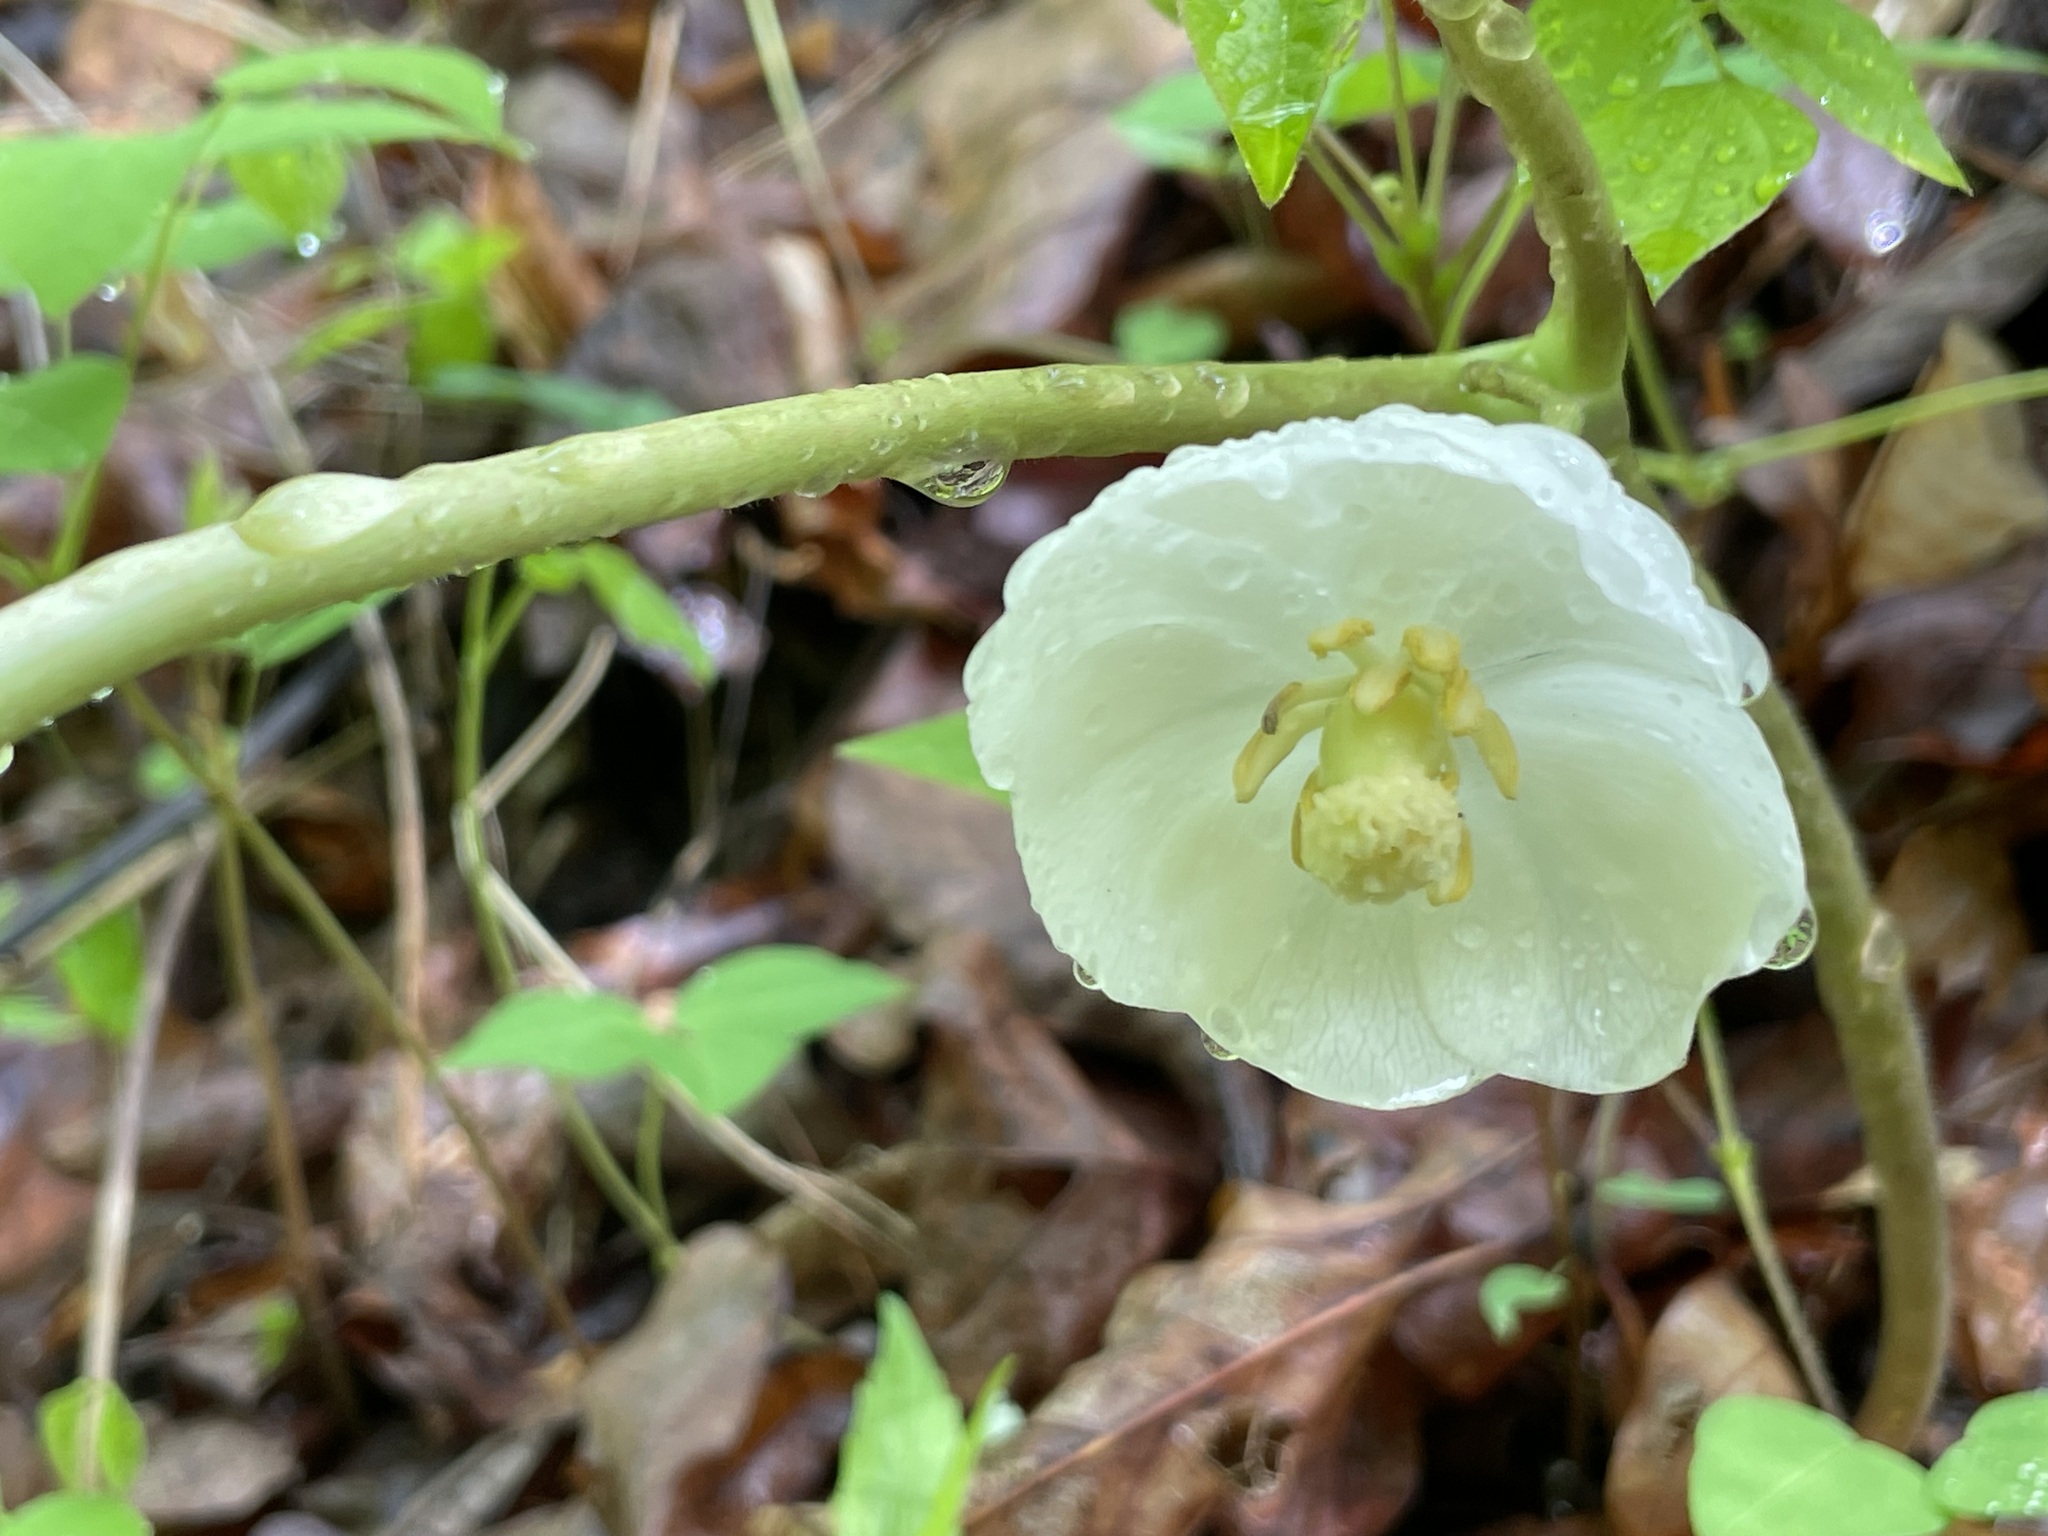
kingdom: Plantae
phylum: Tracheophyta
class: Magnoliopsida
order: Ranunculales
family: Berberidaceae
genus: Podophyllum
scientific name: Podophyllum peltatum
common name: Wild mandrake
